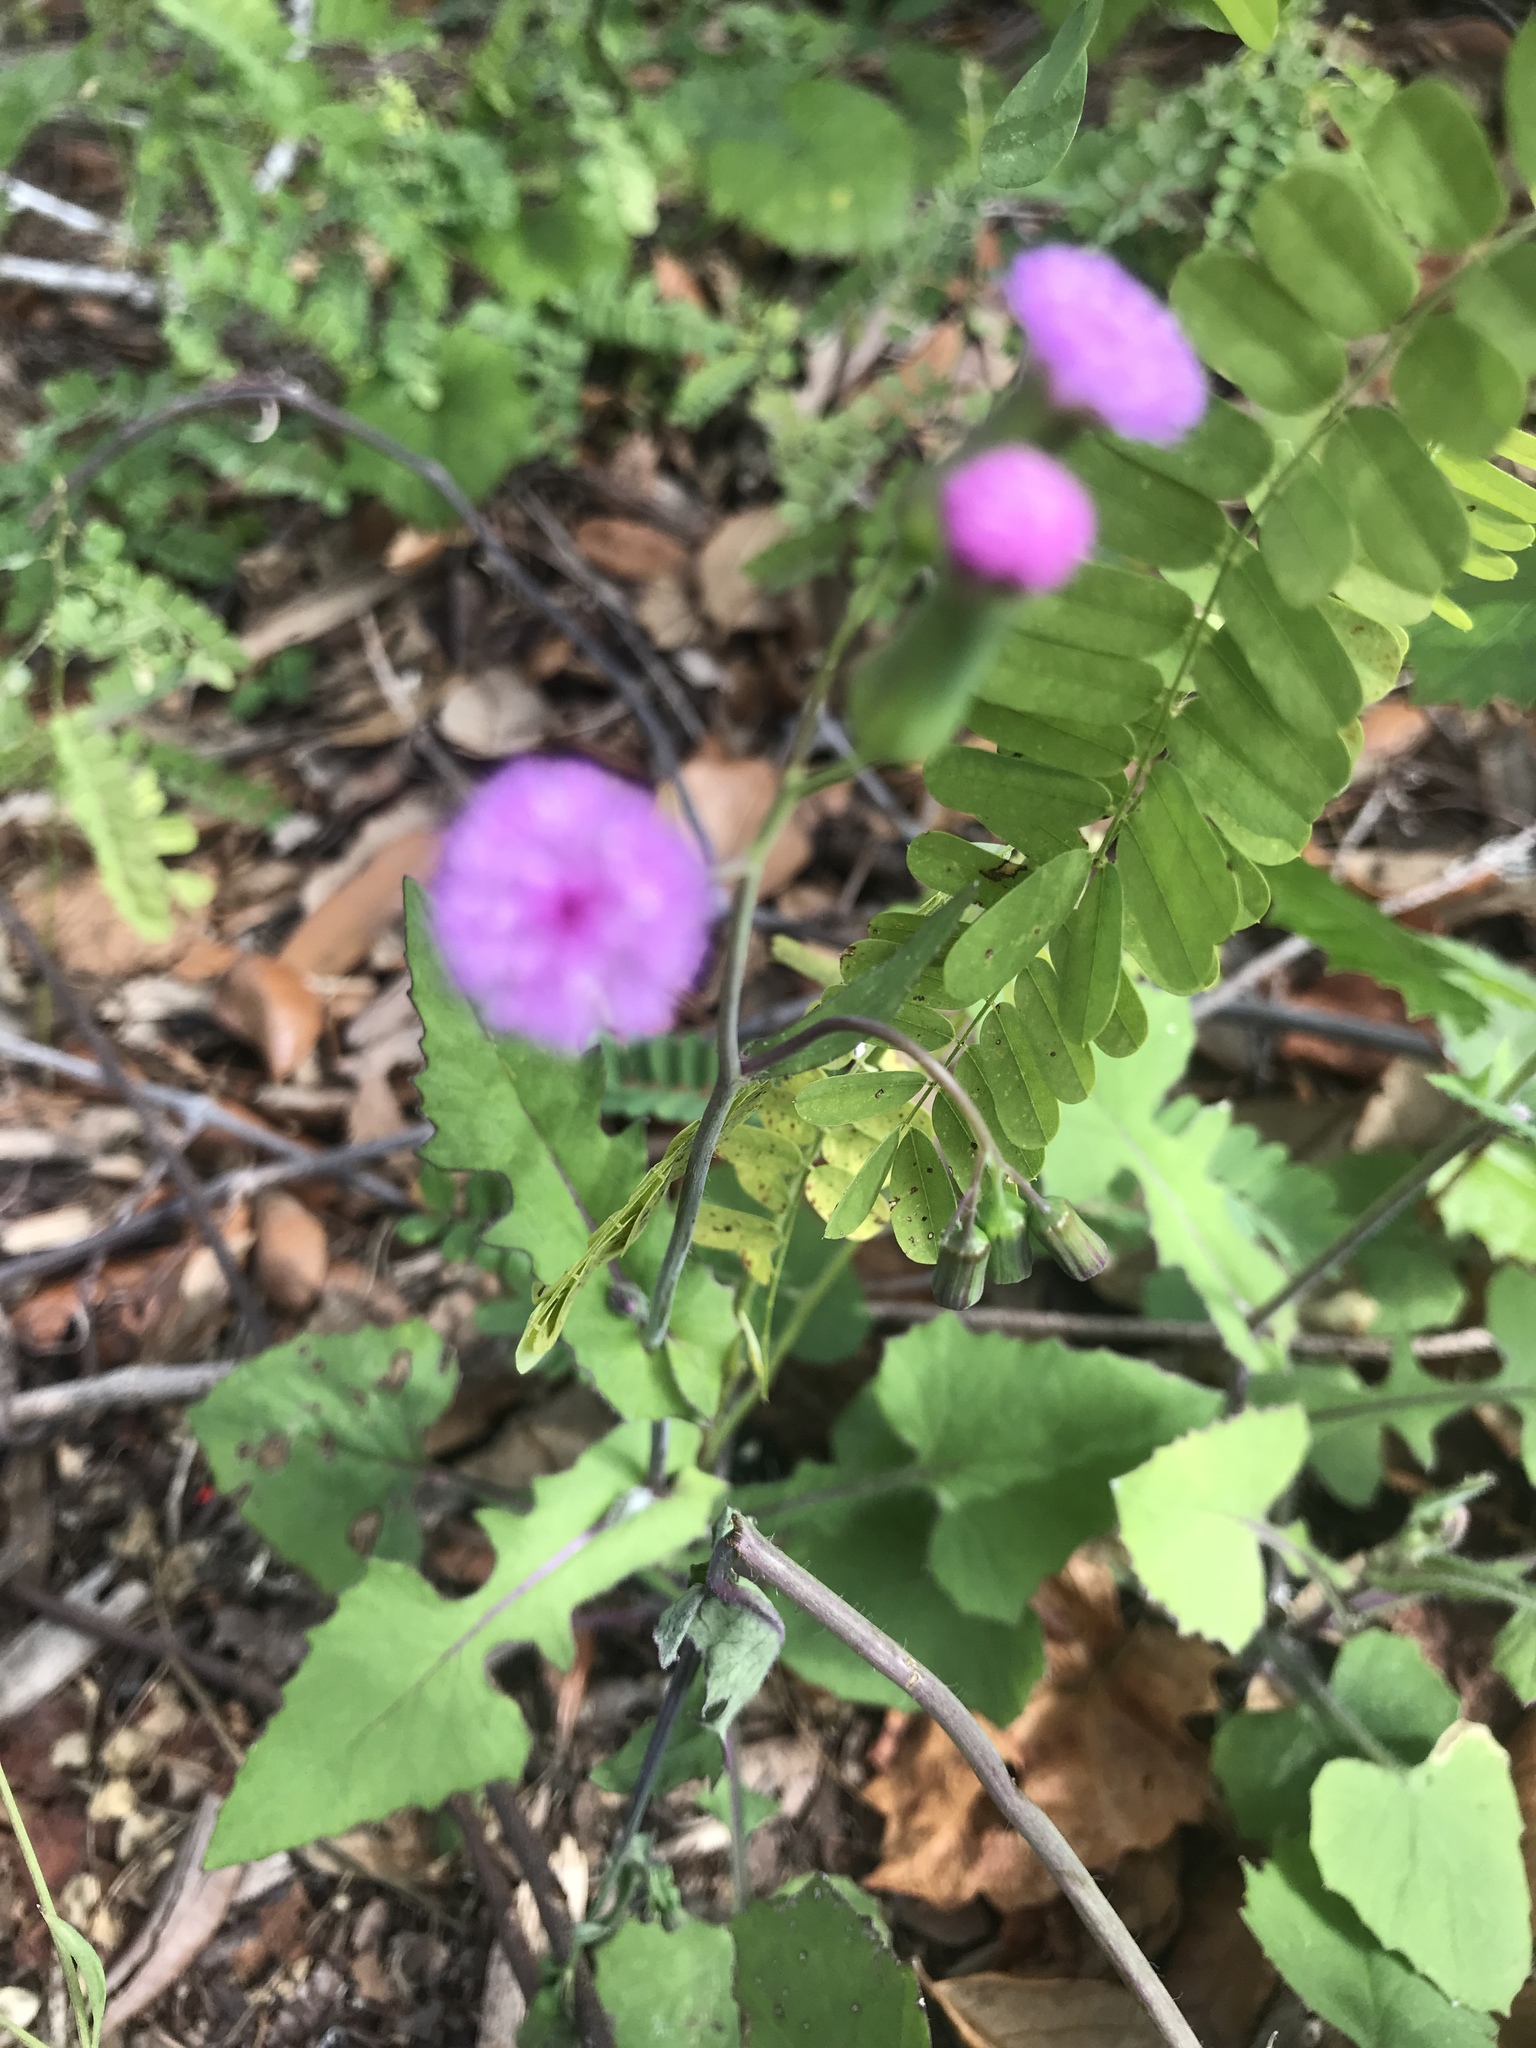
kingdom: Plantae
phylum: Tracheophyta
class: Magnoliopsida
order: Asterales
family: Asteraceae
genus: Emilia
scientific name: Emilia sonchifolia
